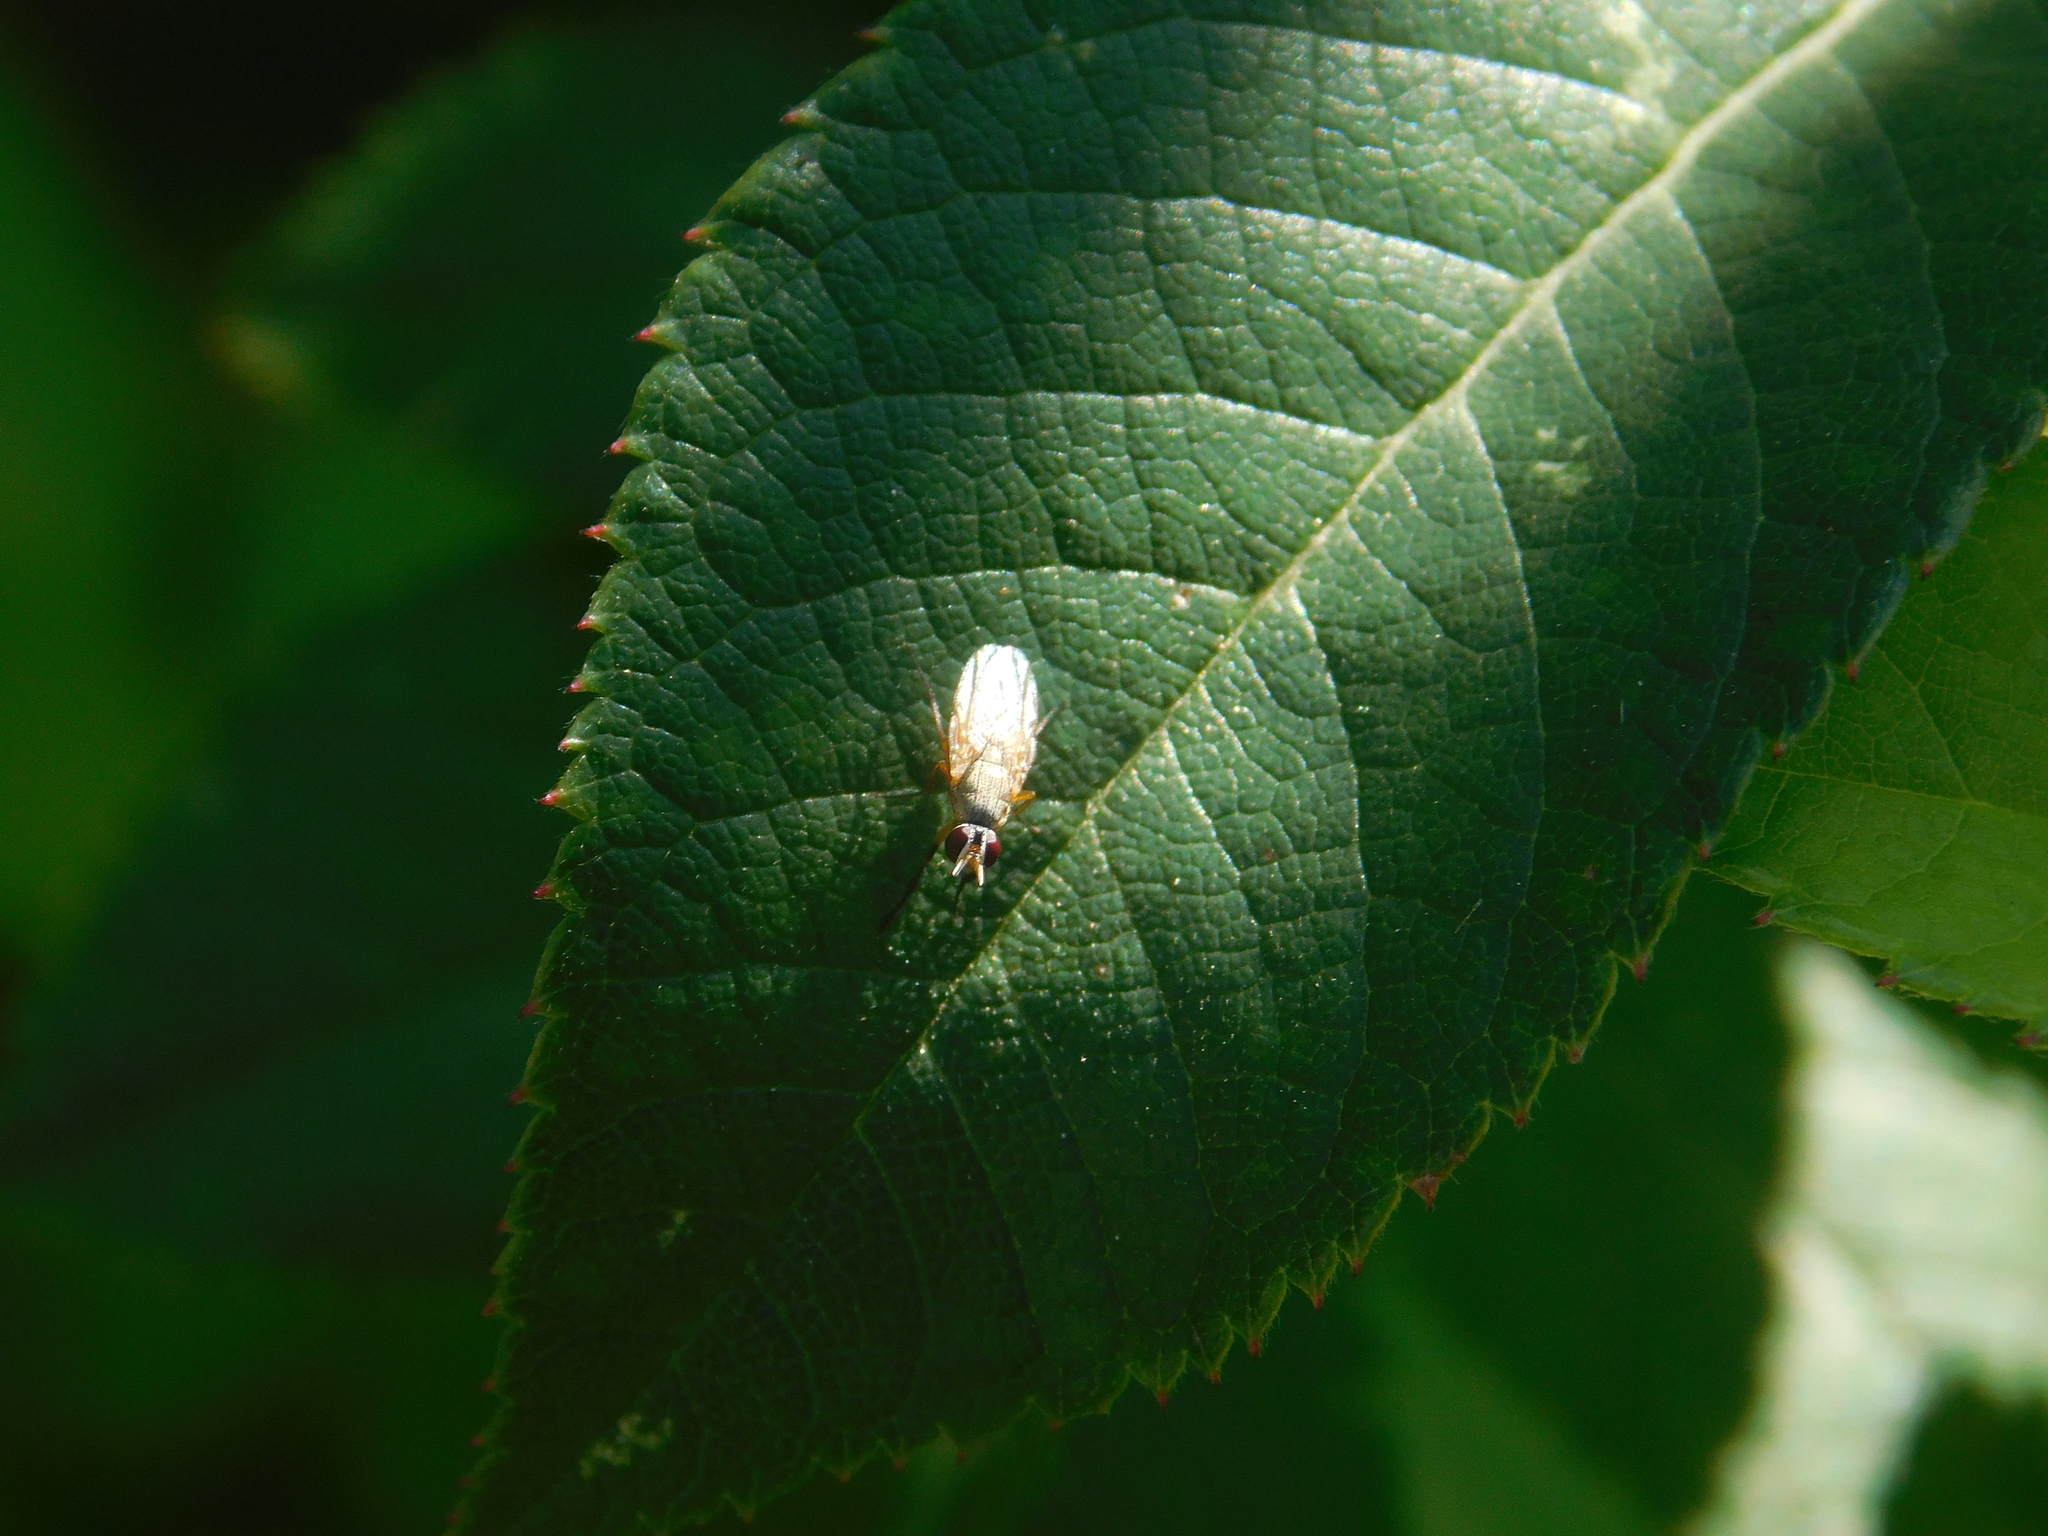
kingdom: Animalia
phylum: Arthropoda
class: Insecta
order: Diptera
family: Muscidae
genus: Atherigona
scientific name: Atherigona reversura
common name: Bermudagrass stem maggot
